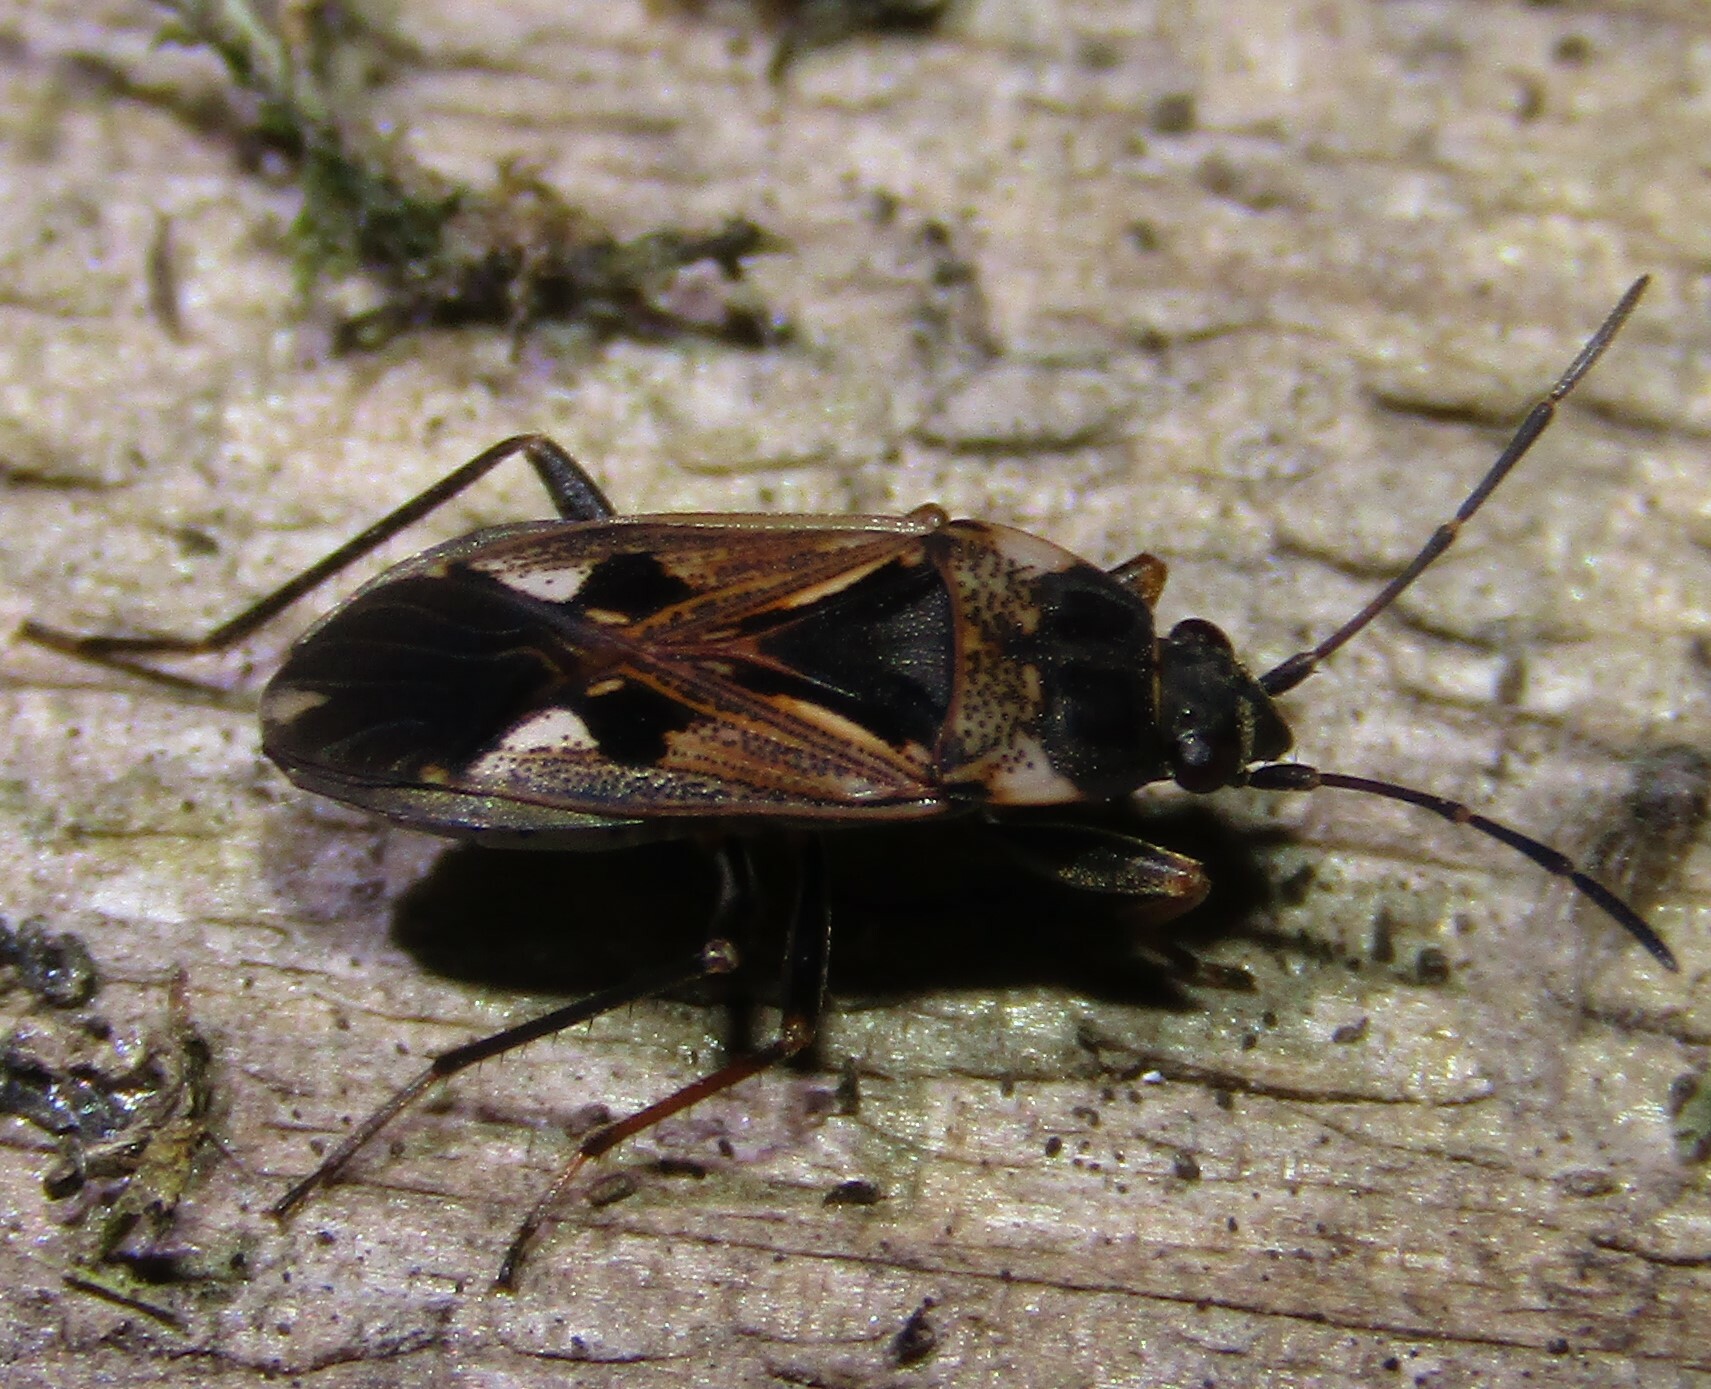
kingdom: Animalia
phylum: Arthropoda
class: Insecta
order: Hemiptera
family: Rhyparochromidae
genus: Rhyparochromus
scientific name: Rhyparochromus vulgaris
